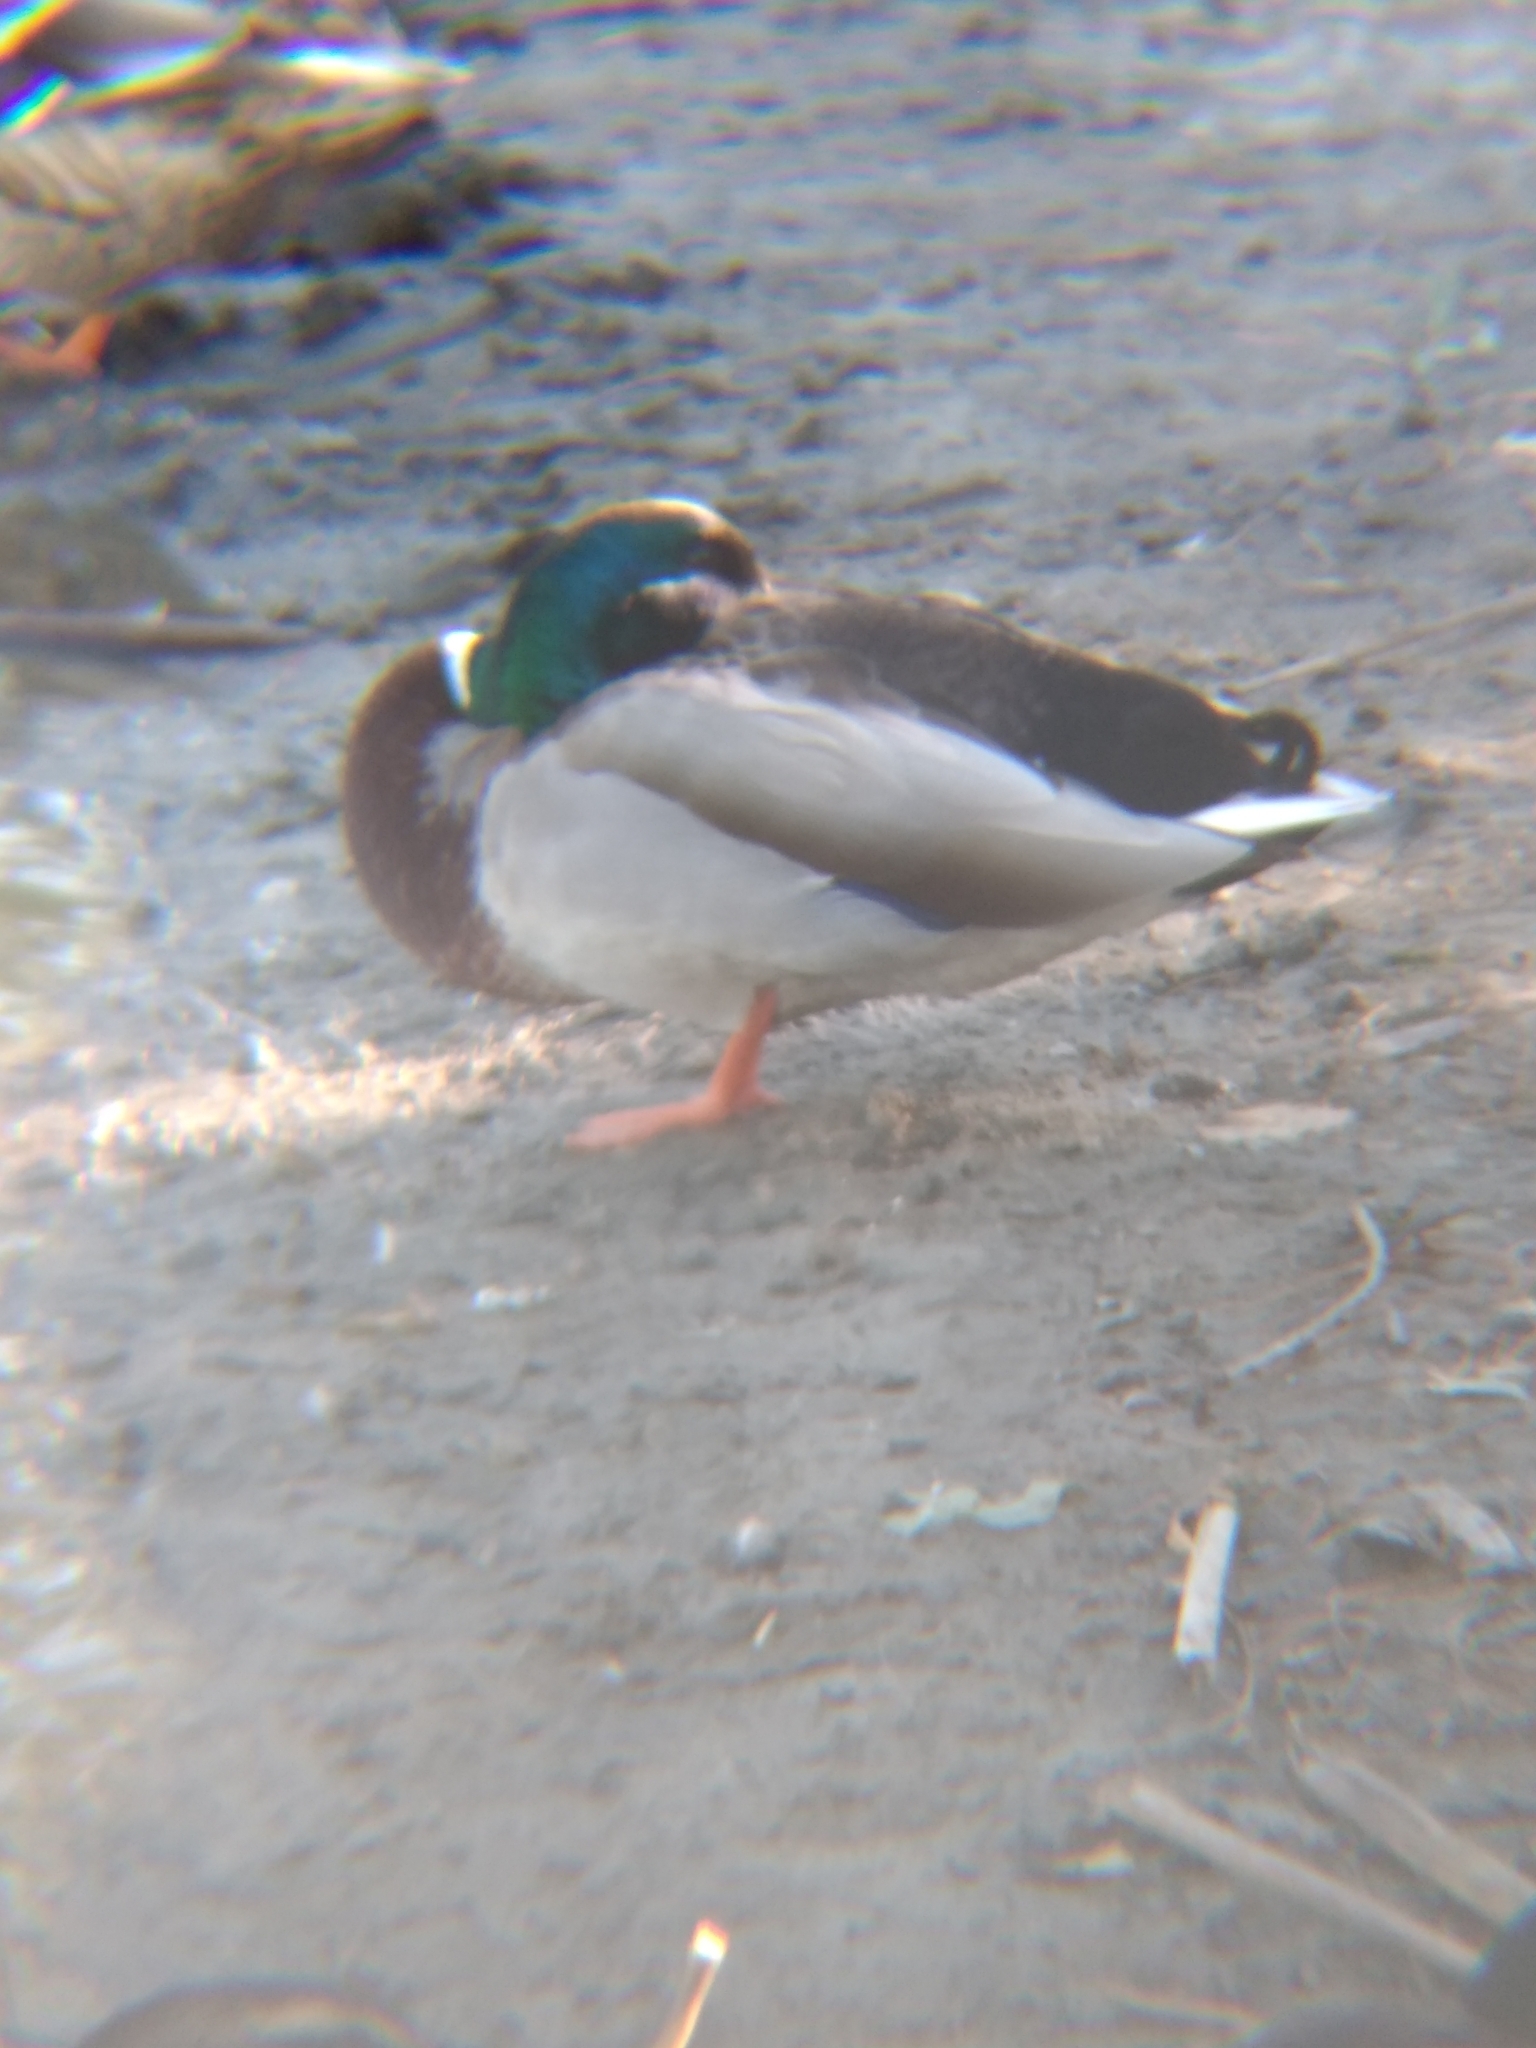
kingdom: Animalia
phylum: Chordata
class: Aves
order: Anseriformes
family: Anatidae
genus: Anas
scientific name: Anas platyrhynchos
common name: Mallard
